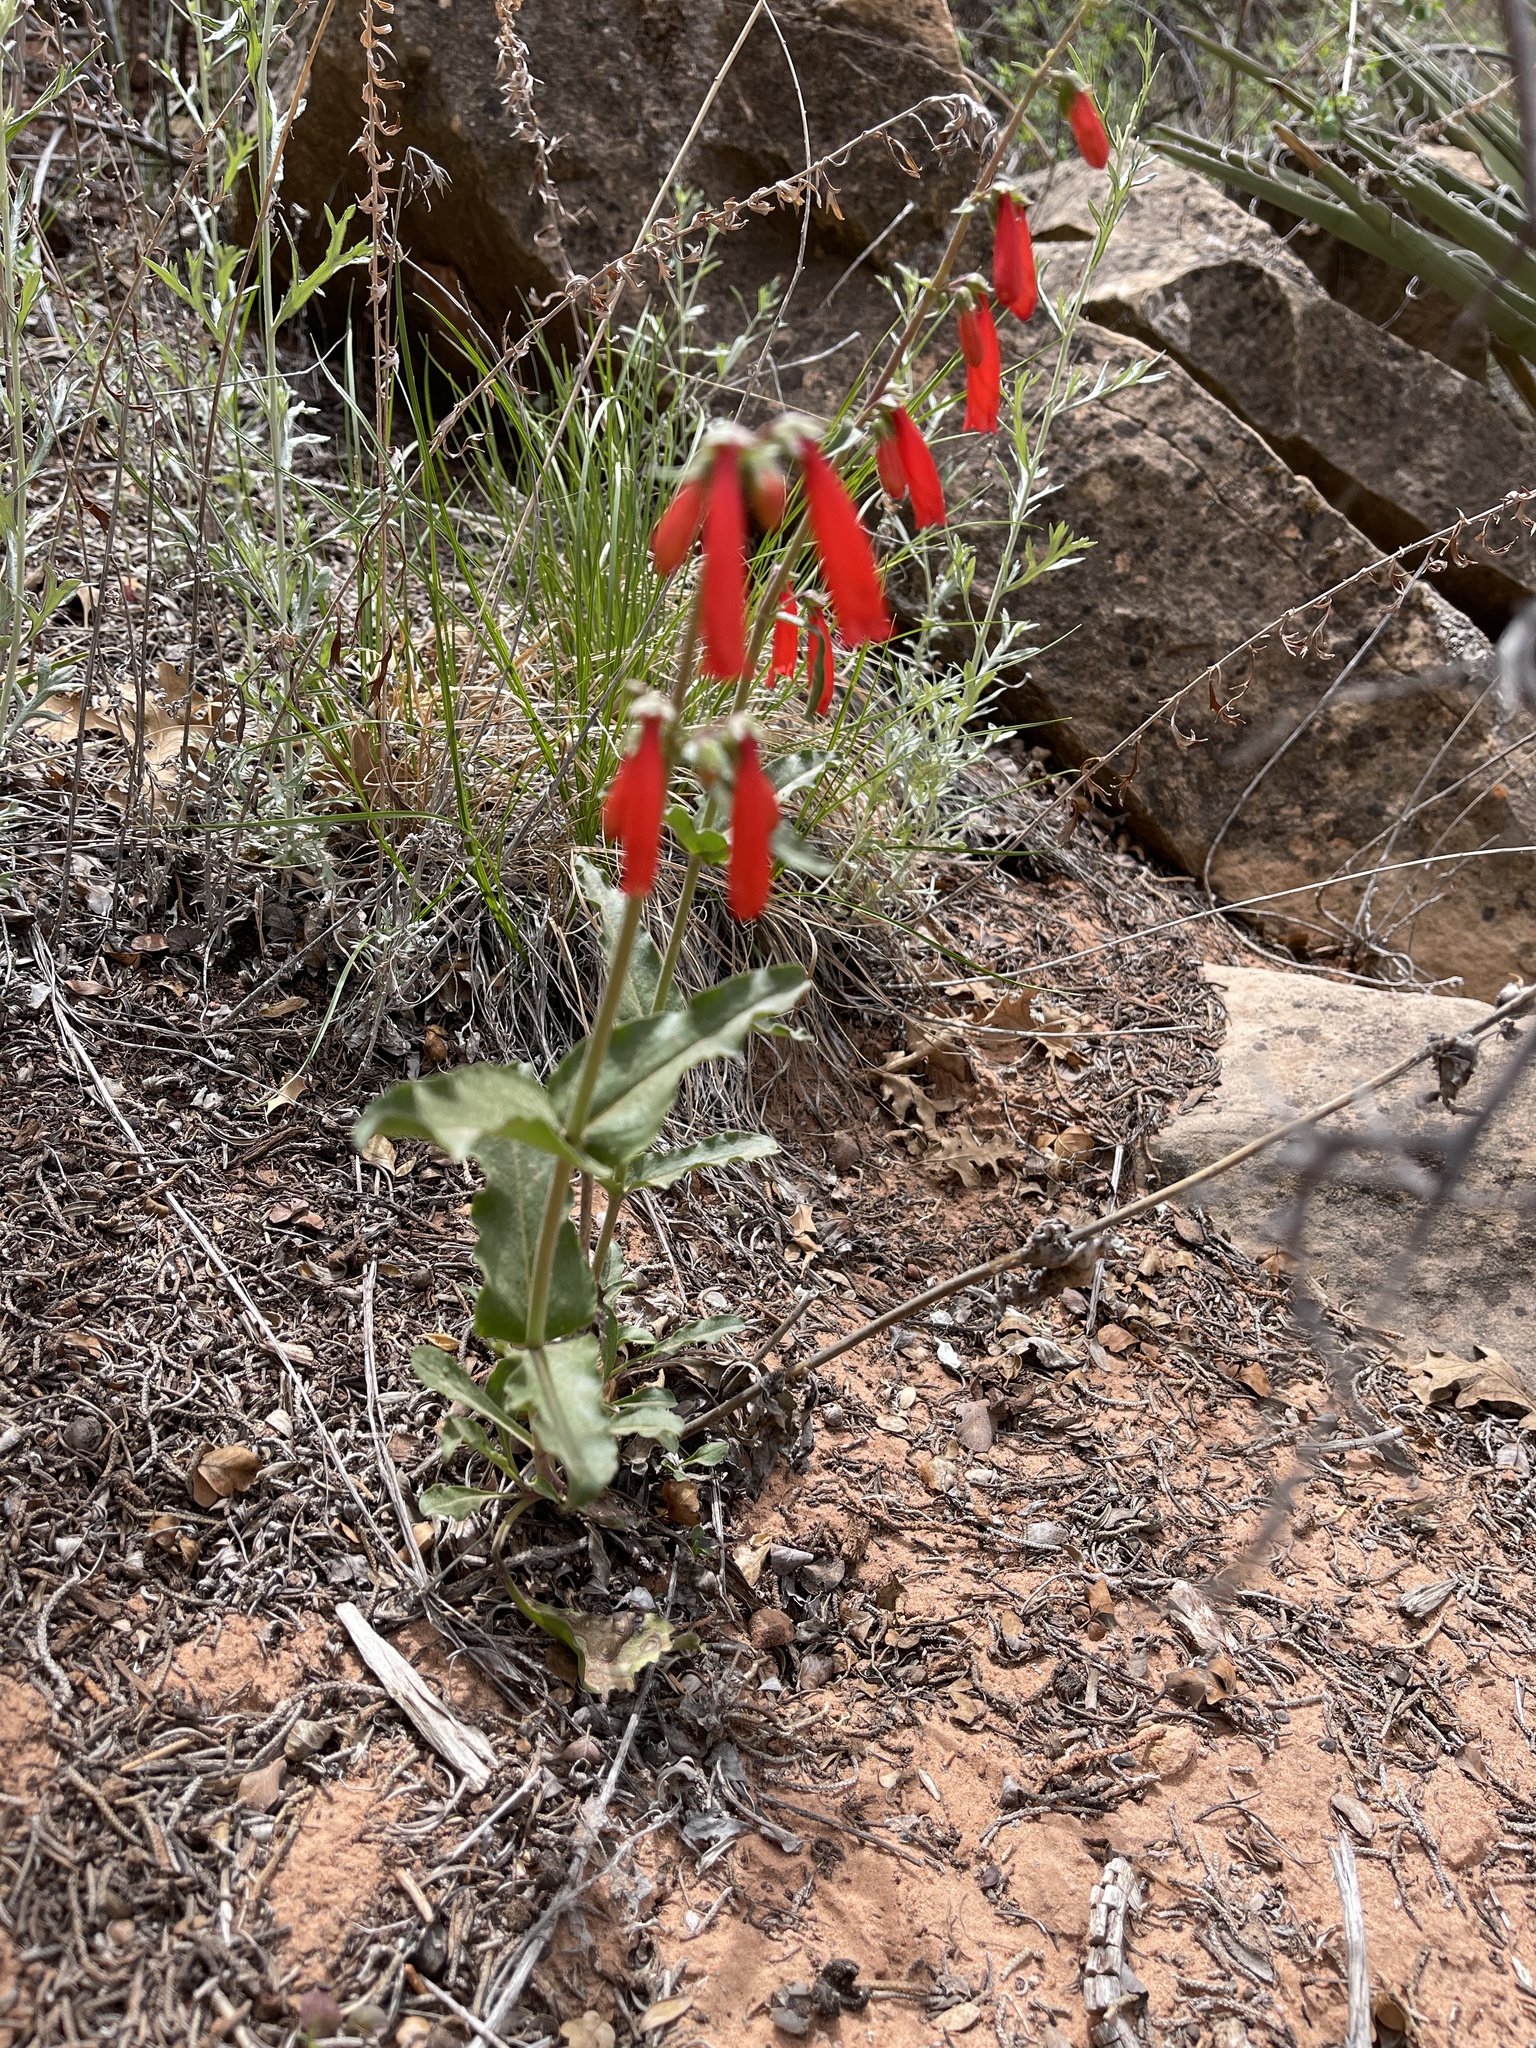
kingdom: Plantae
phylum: Tracheophyta
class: Magnoliopsida
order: Lamiales
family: Plantaginaceae
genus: Penstemon
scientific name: Penstemon eatonii
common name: Eaton's penstemon
